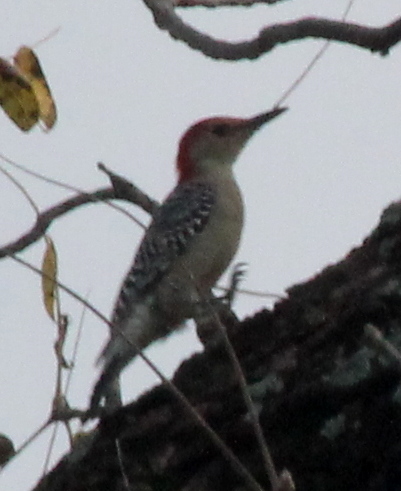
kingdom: Animalia
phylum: Chordata
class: Aves
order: Piciformes
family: Picidae
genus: Melanerpes
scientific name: Melanerpes carolinus
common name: Red-bellied woodpecker
